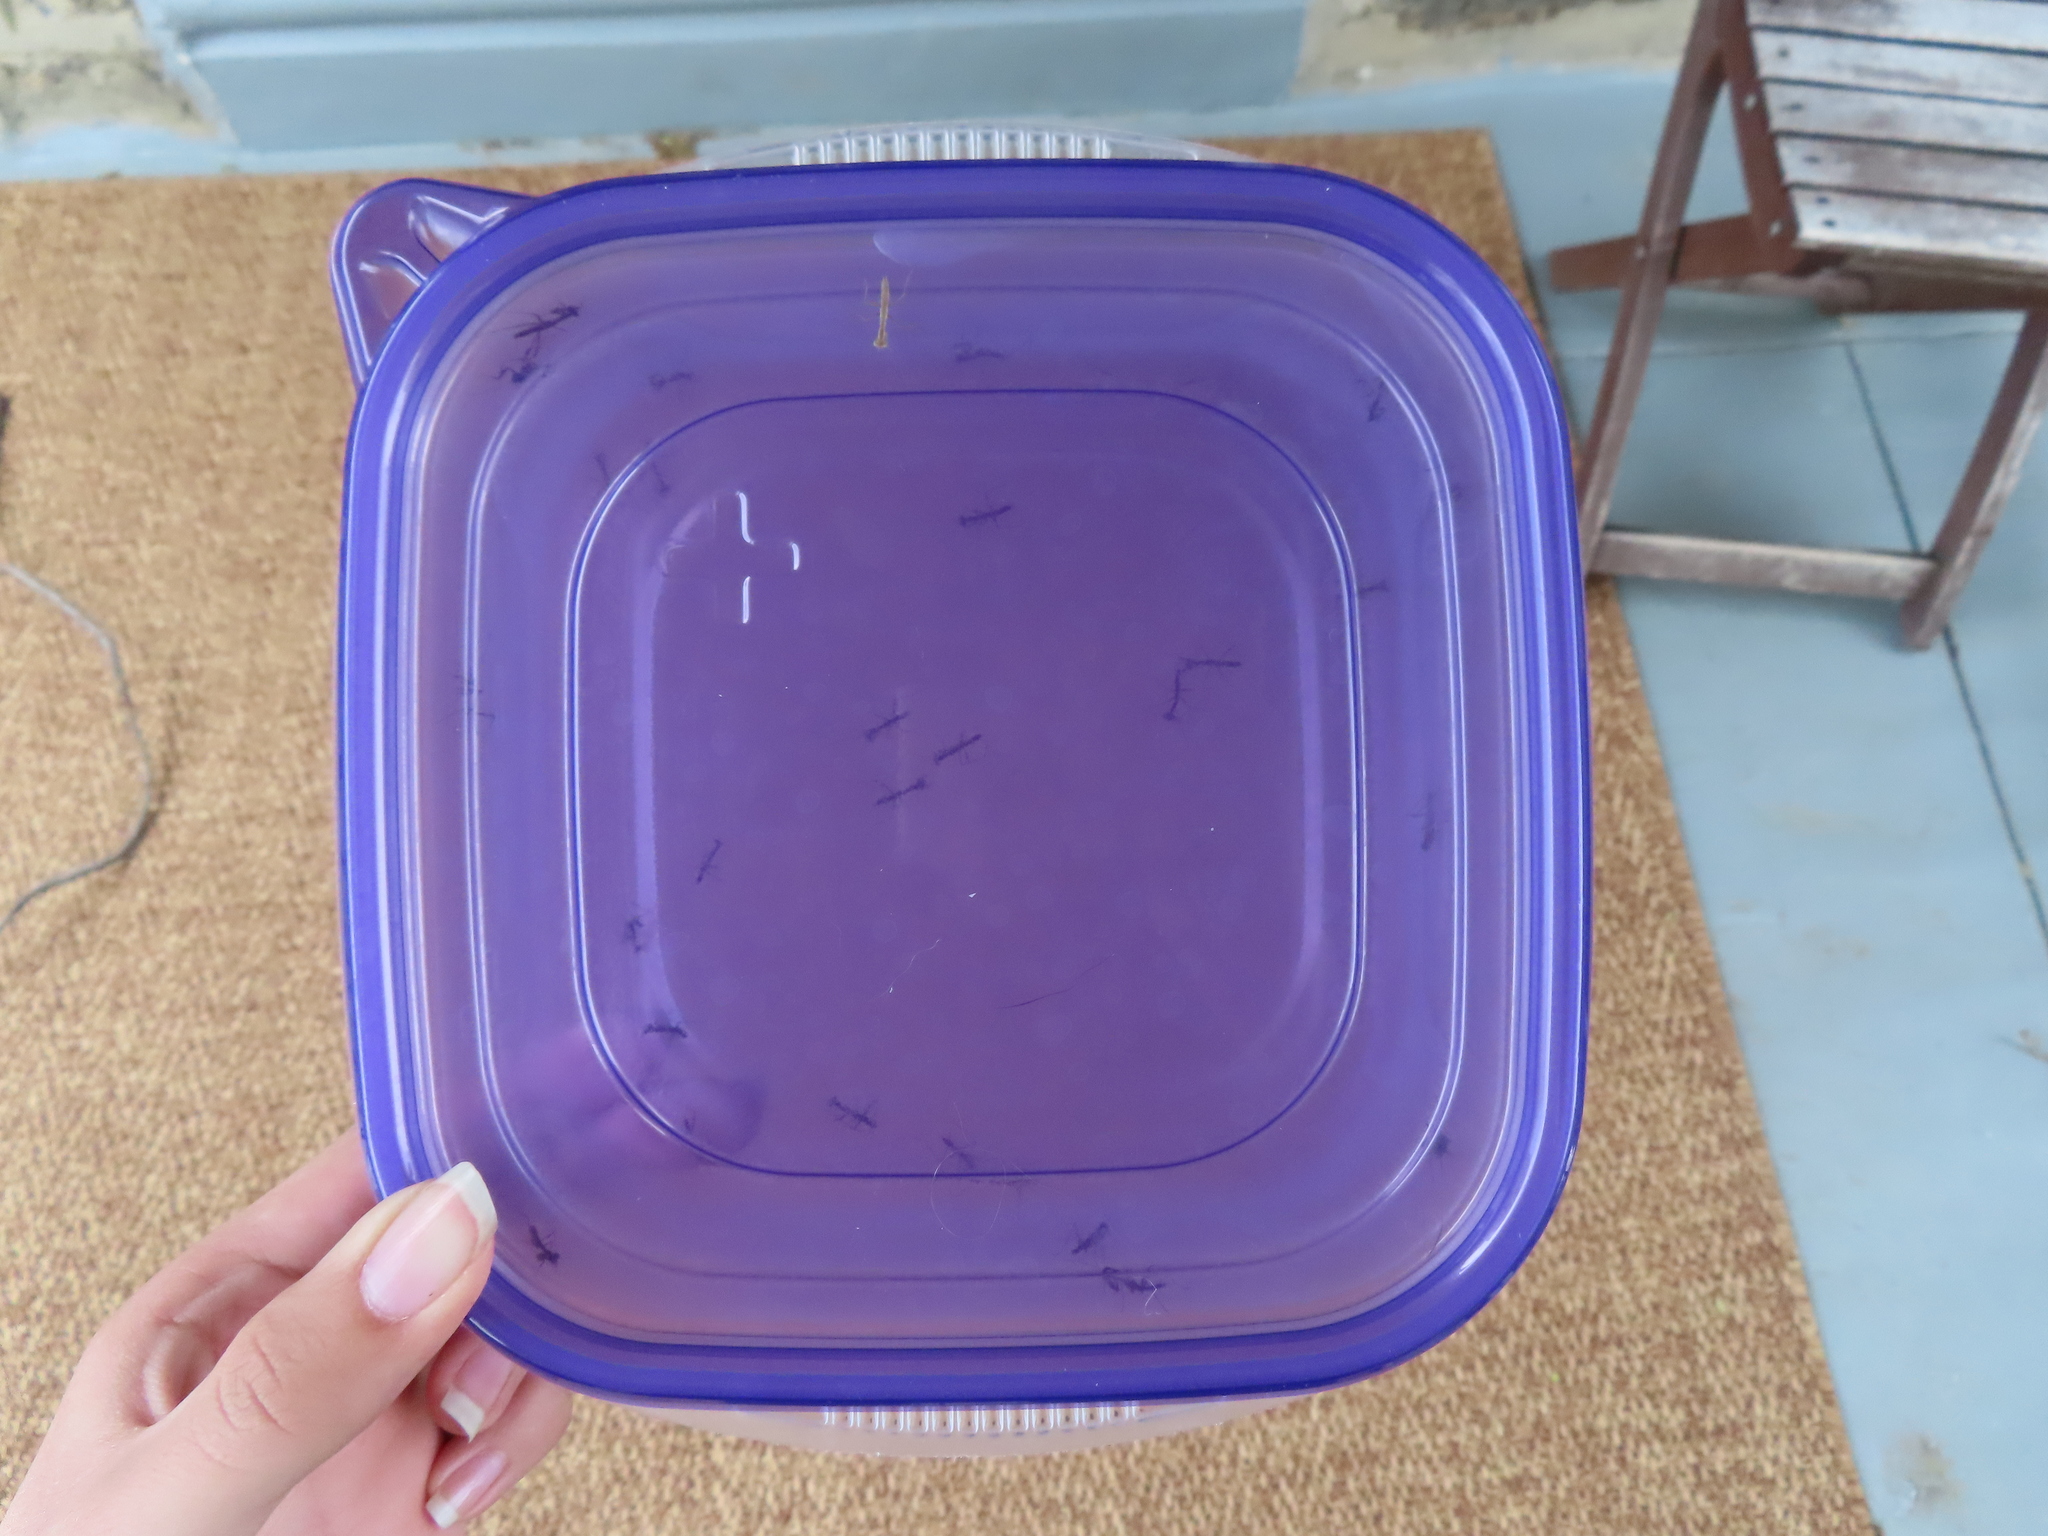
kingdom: Animalia
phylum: Arthropoda
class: Insecta
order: Mantodea
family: Mantidae
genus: Tenodera
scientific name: Tenodera sinensis
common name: Chinese mantis
